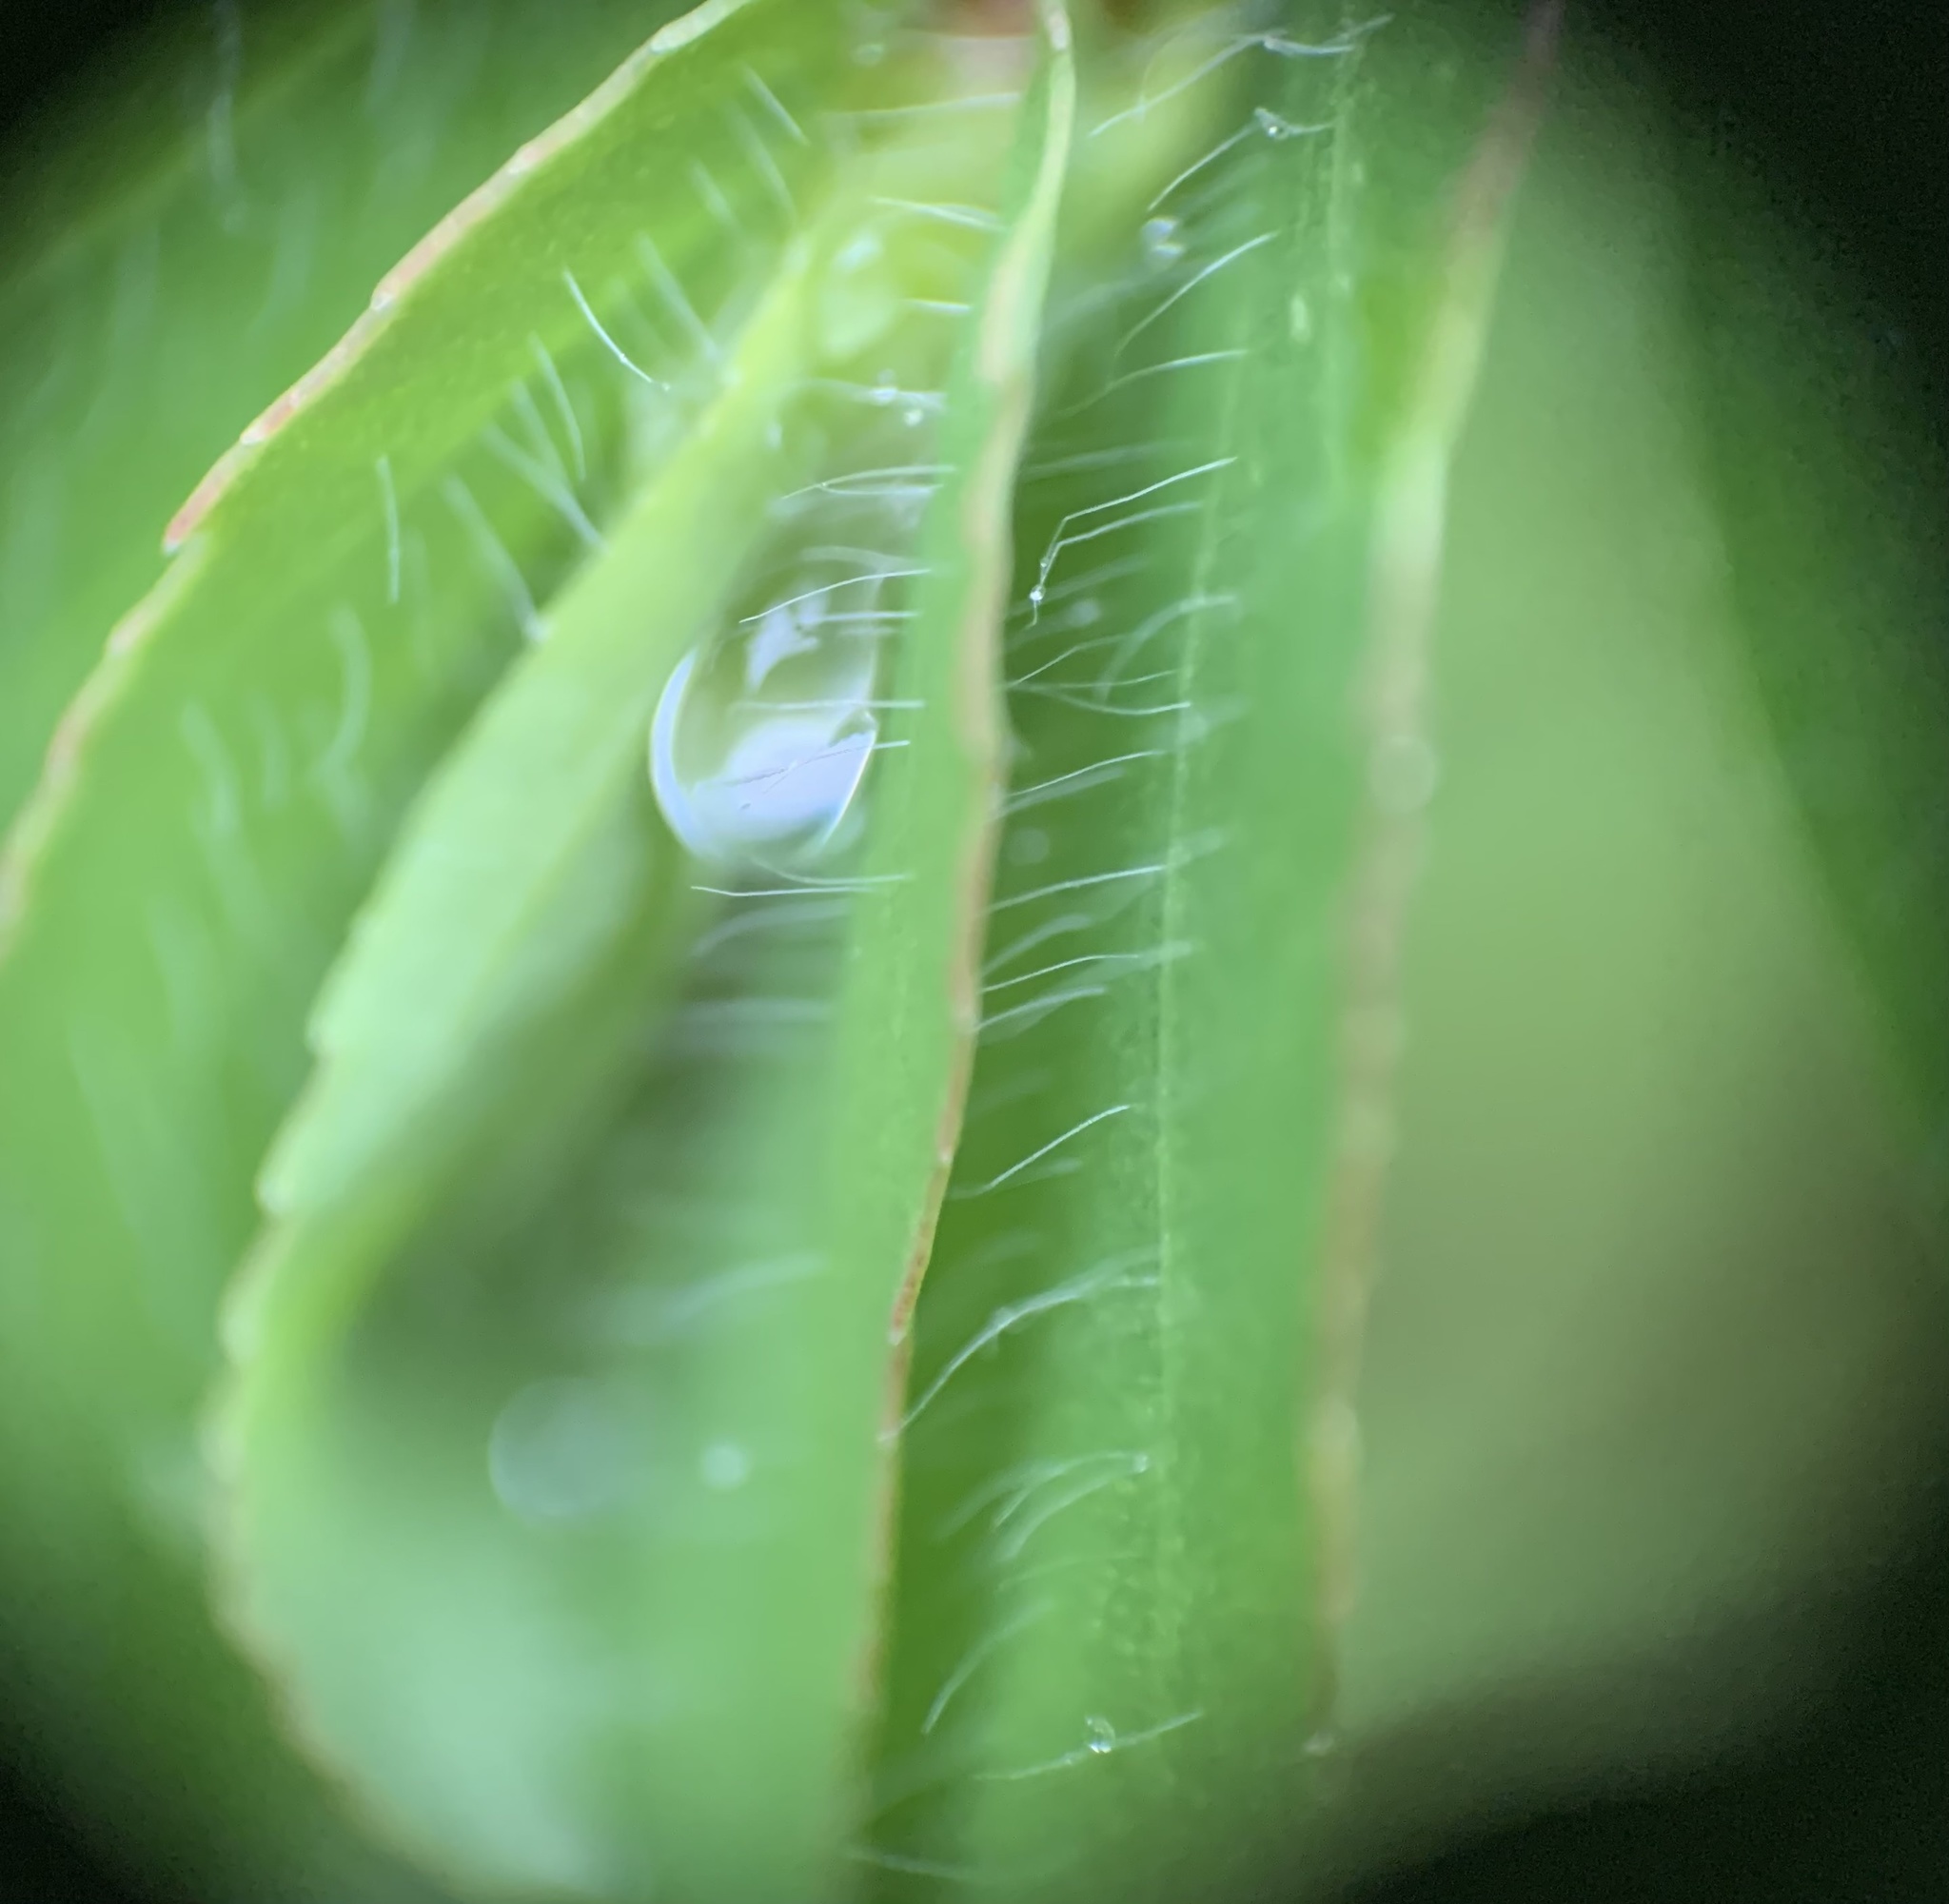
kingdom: Plantae
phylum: Tracheophyta
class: Magnoliopsida
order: Malpighiales
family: Euphorbiaceae
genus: Euphorbia
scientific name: Euphorbia nutans
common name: Eyebane
